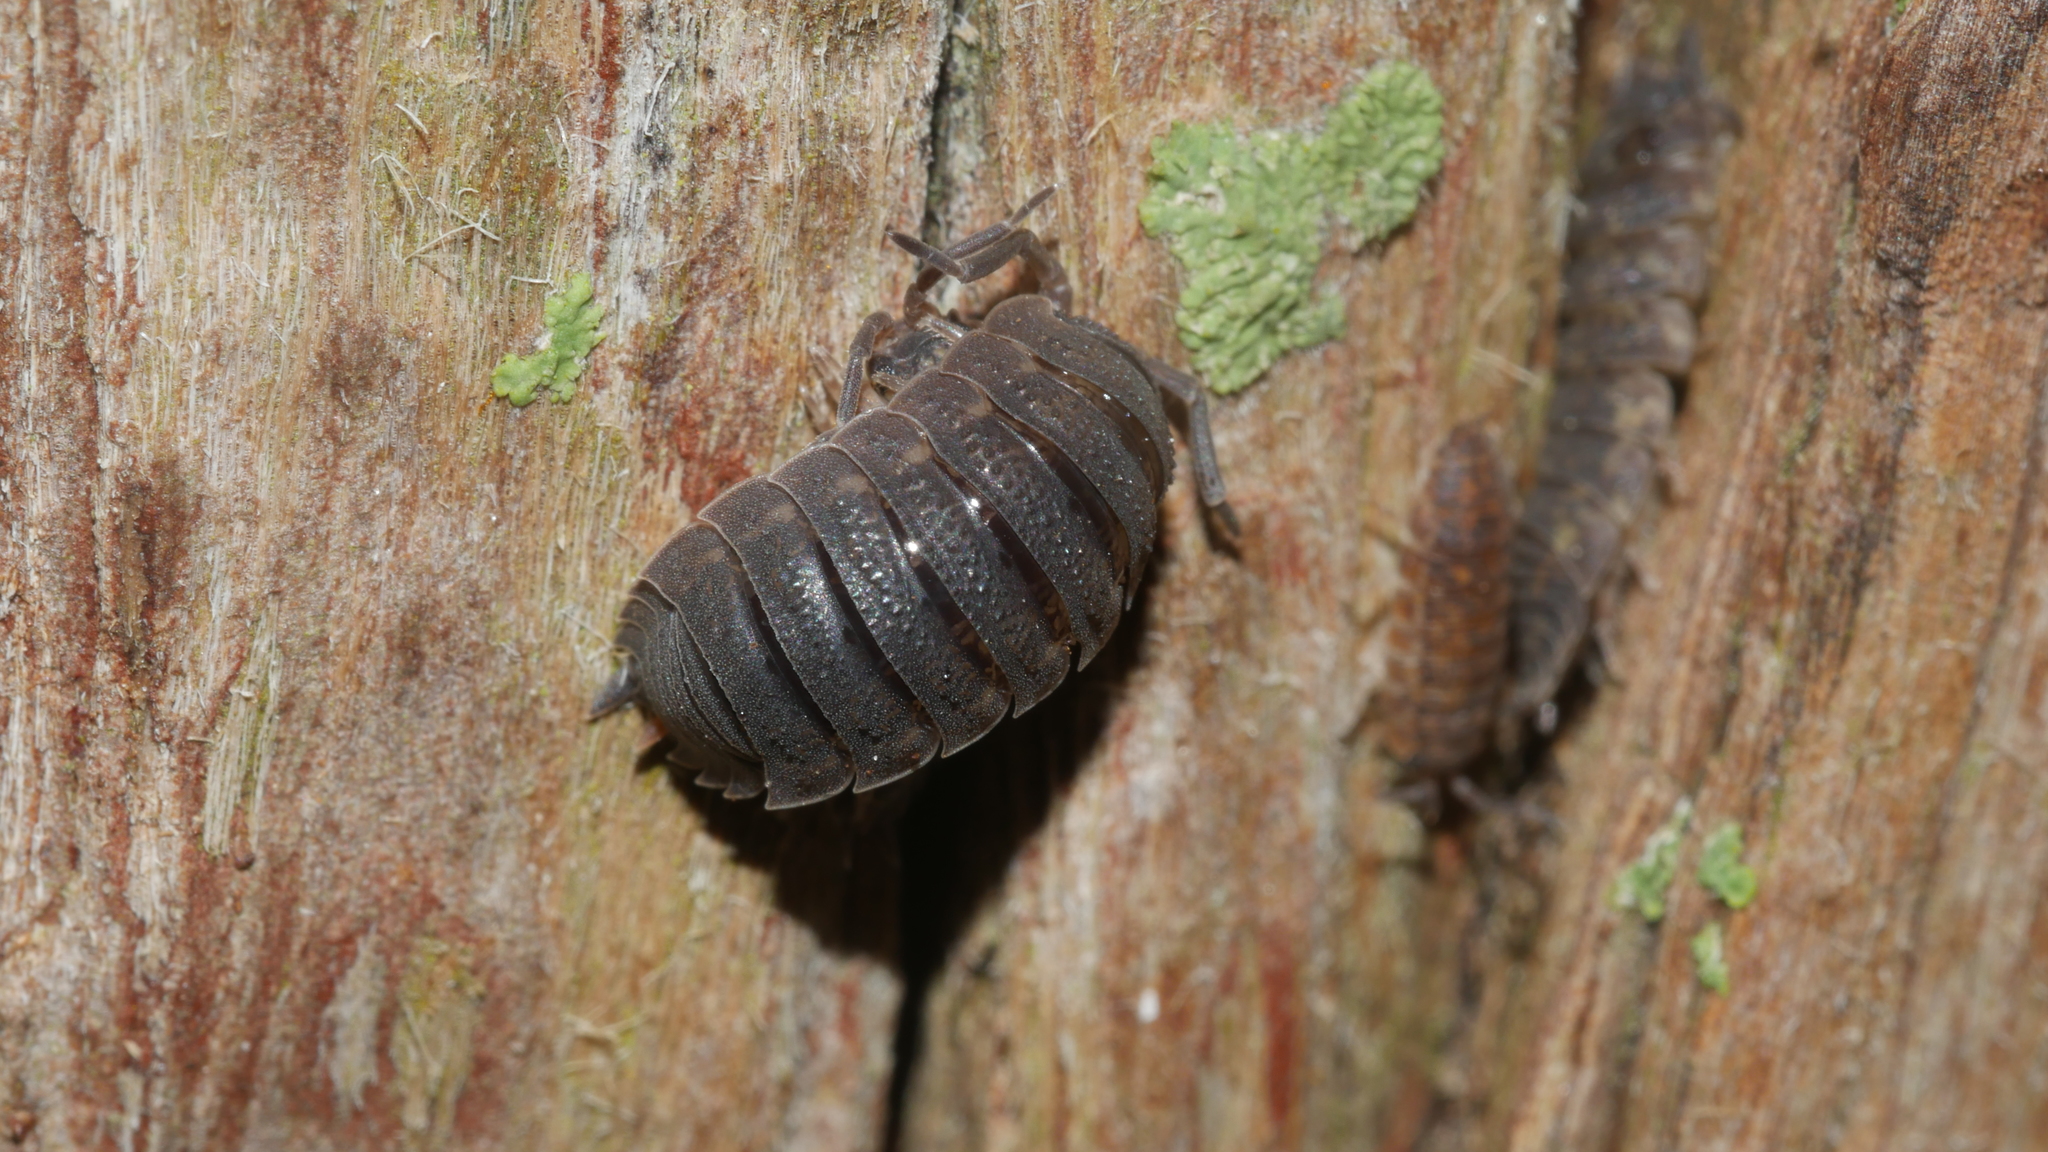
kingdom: Animalia
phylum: Arthropoda
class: Malacostraca
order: Isopoda
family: Porcellionidae
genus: Porcellio
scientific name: Porcellio scaber
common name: Common rough woodlouse
